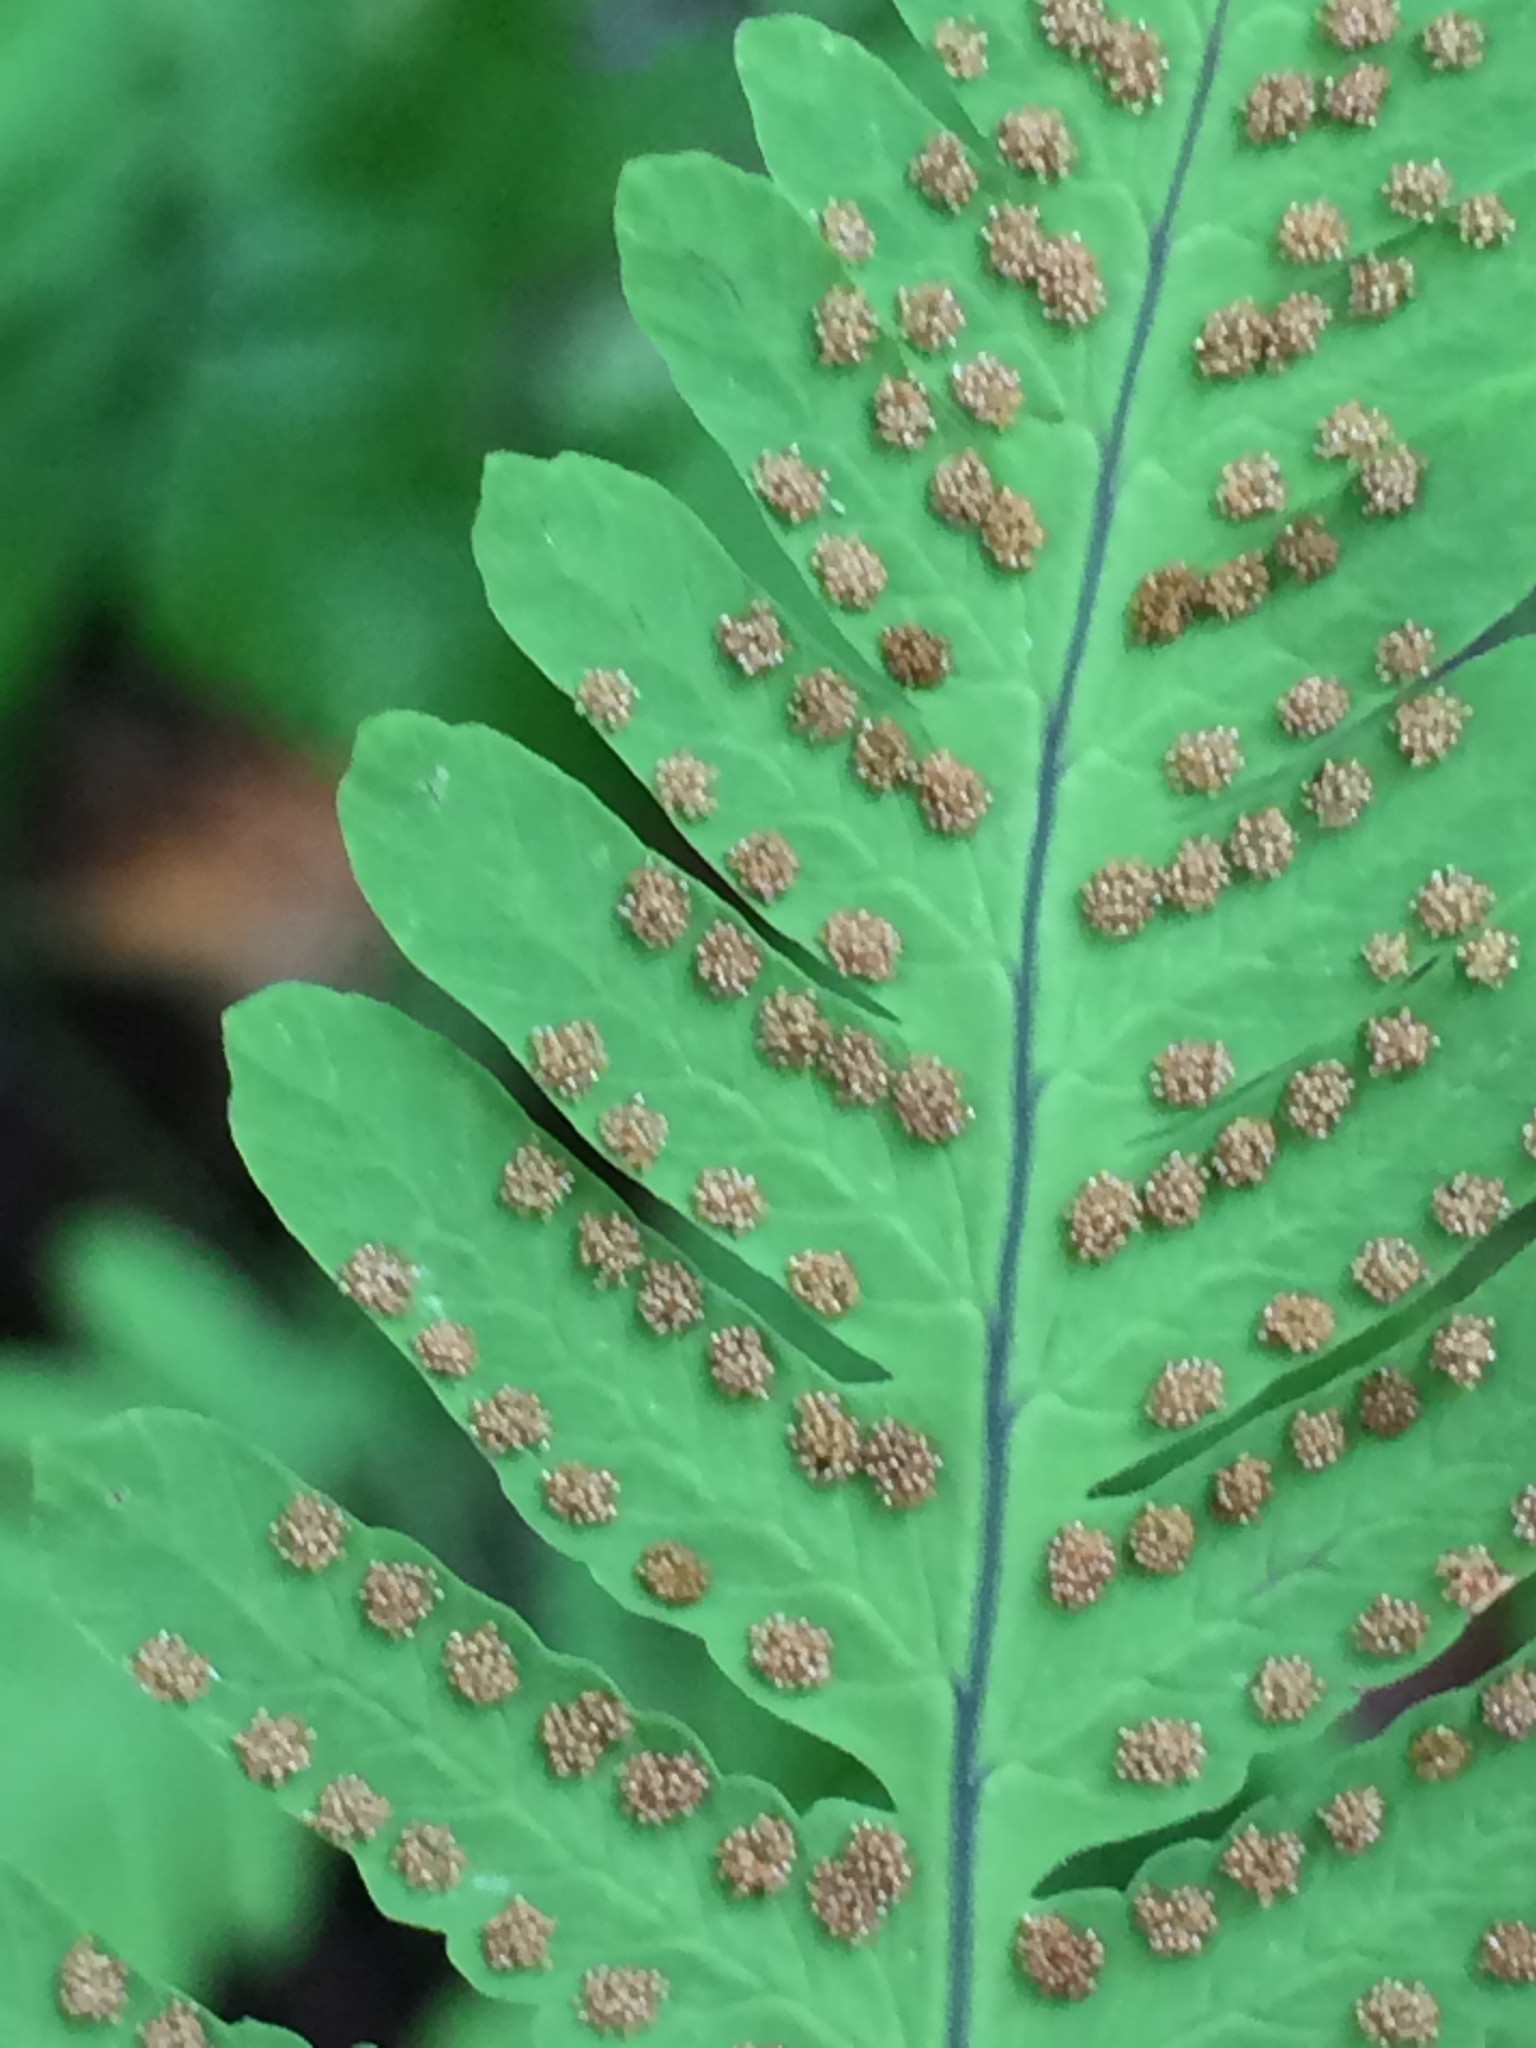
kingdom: Plantae
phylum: Tracheophyta
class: Polypodiopsida
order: Polypodiales
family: Cystopteridaceae
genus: Gymnocarpium
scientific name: Gymnocarpium dryopteris
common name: Oak fern
